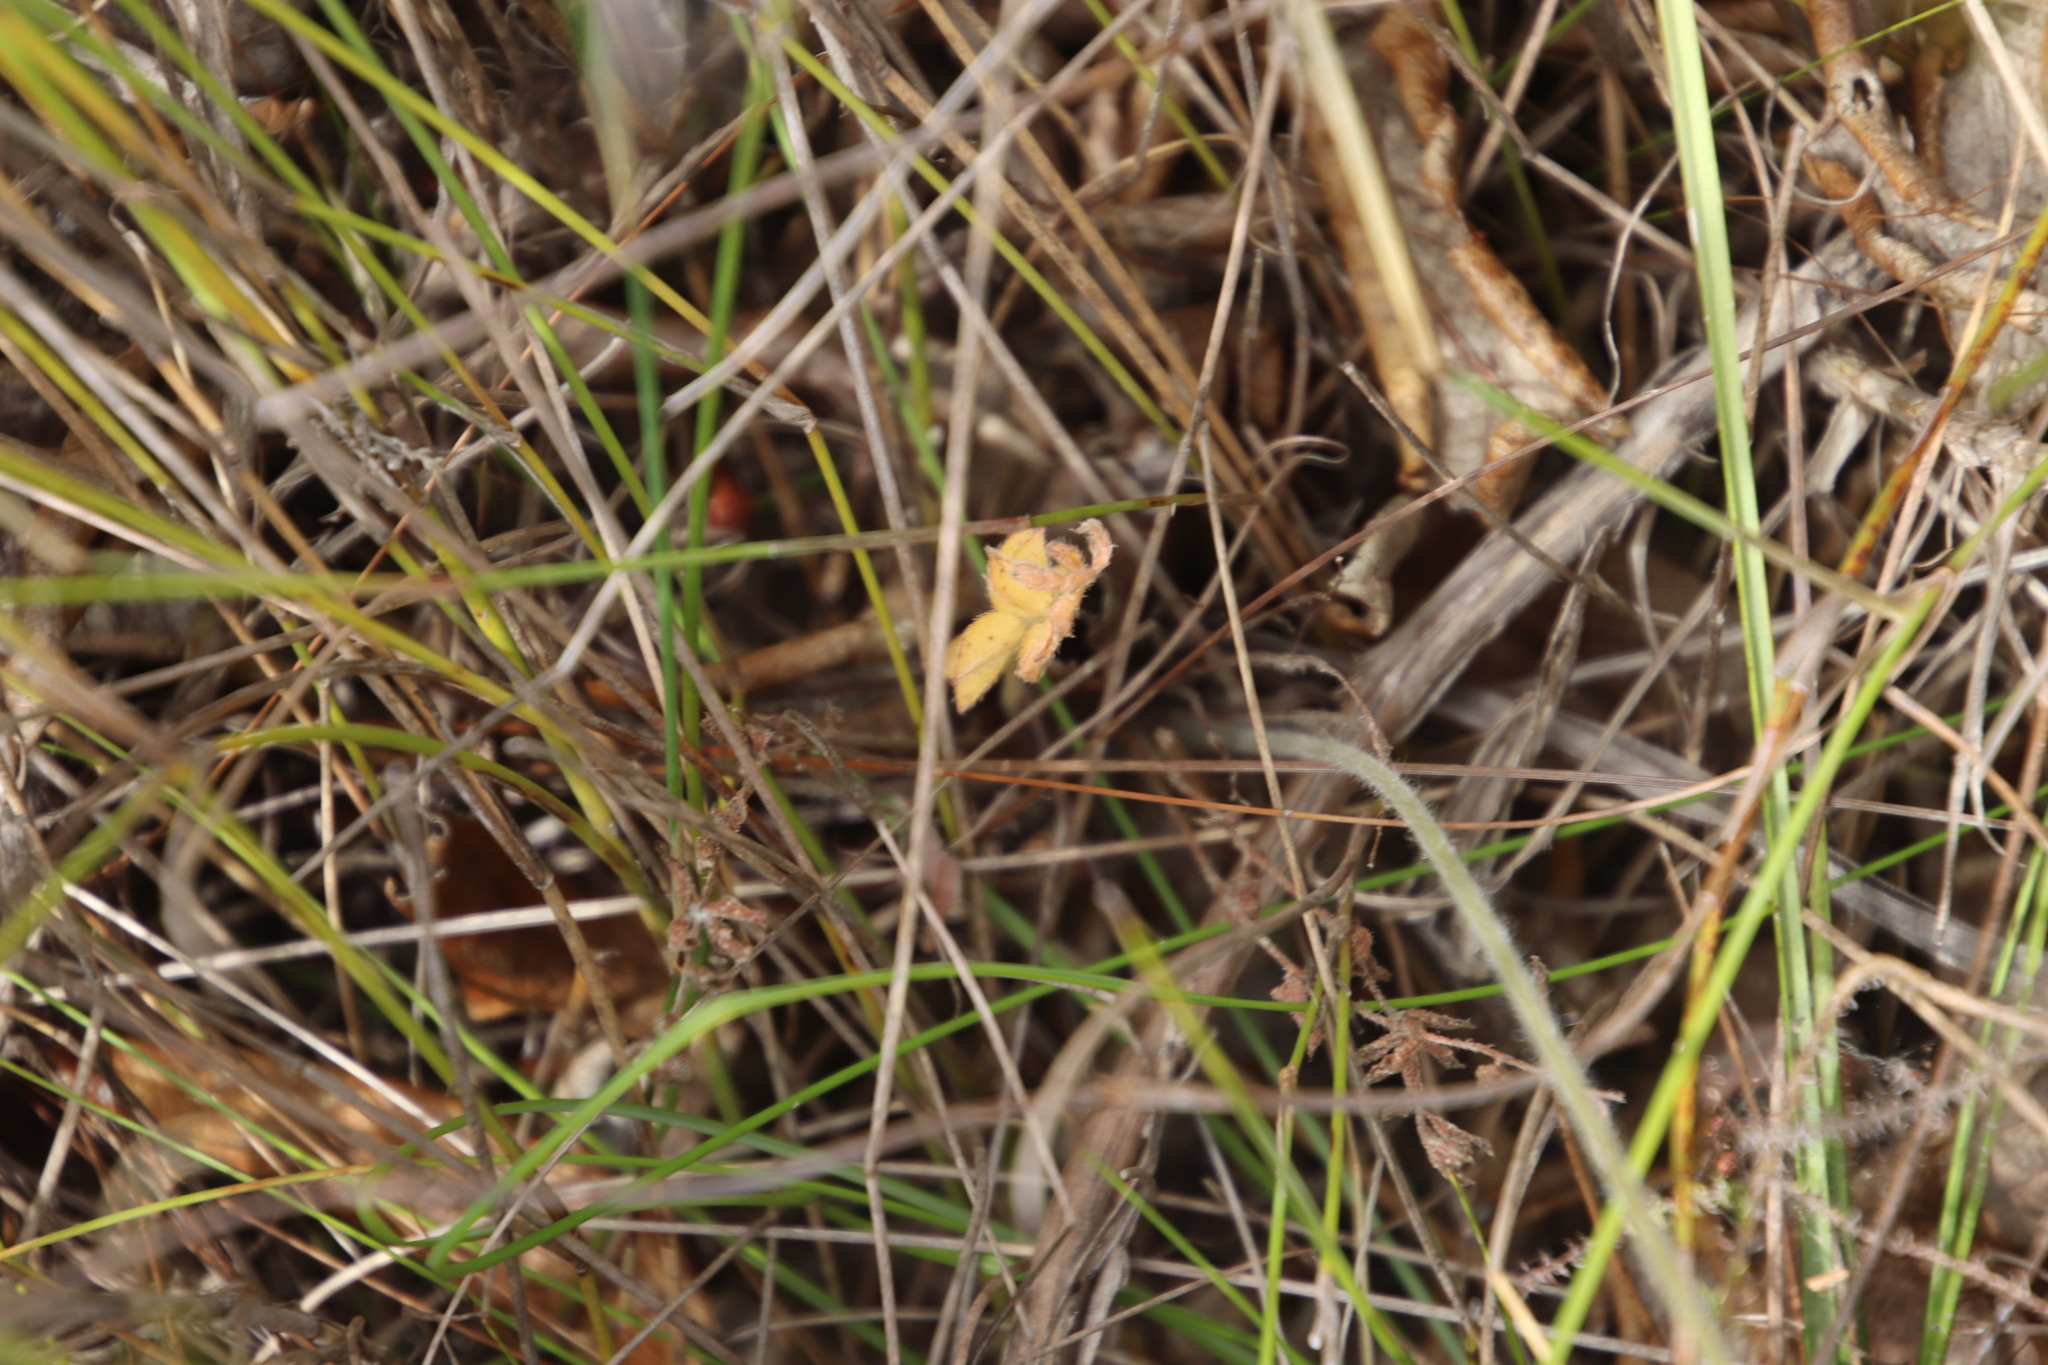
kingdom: Plantae
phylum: Tracheophyta
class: Magnoliopsida
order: Geraniales
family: Geraniaceae
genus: Pelargonium
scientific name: Pelargonium pinnatum
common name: Pinnated pelargonium
